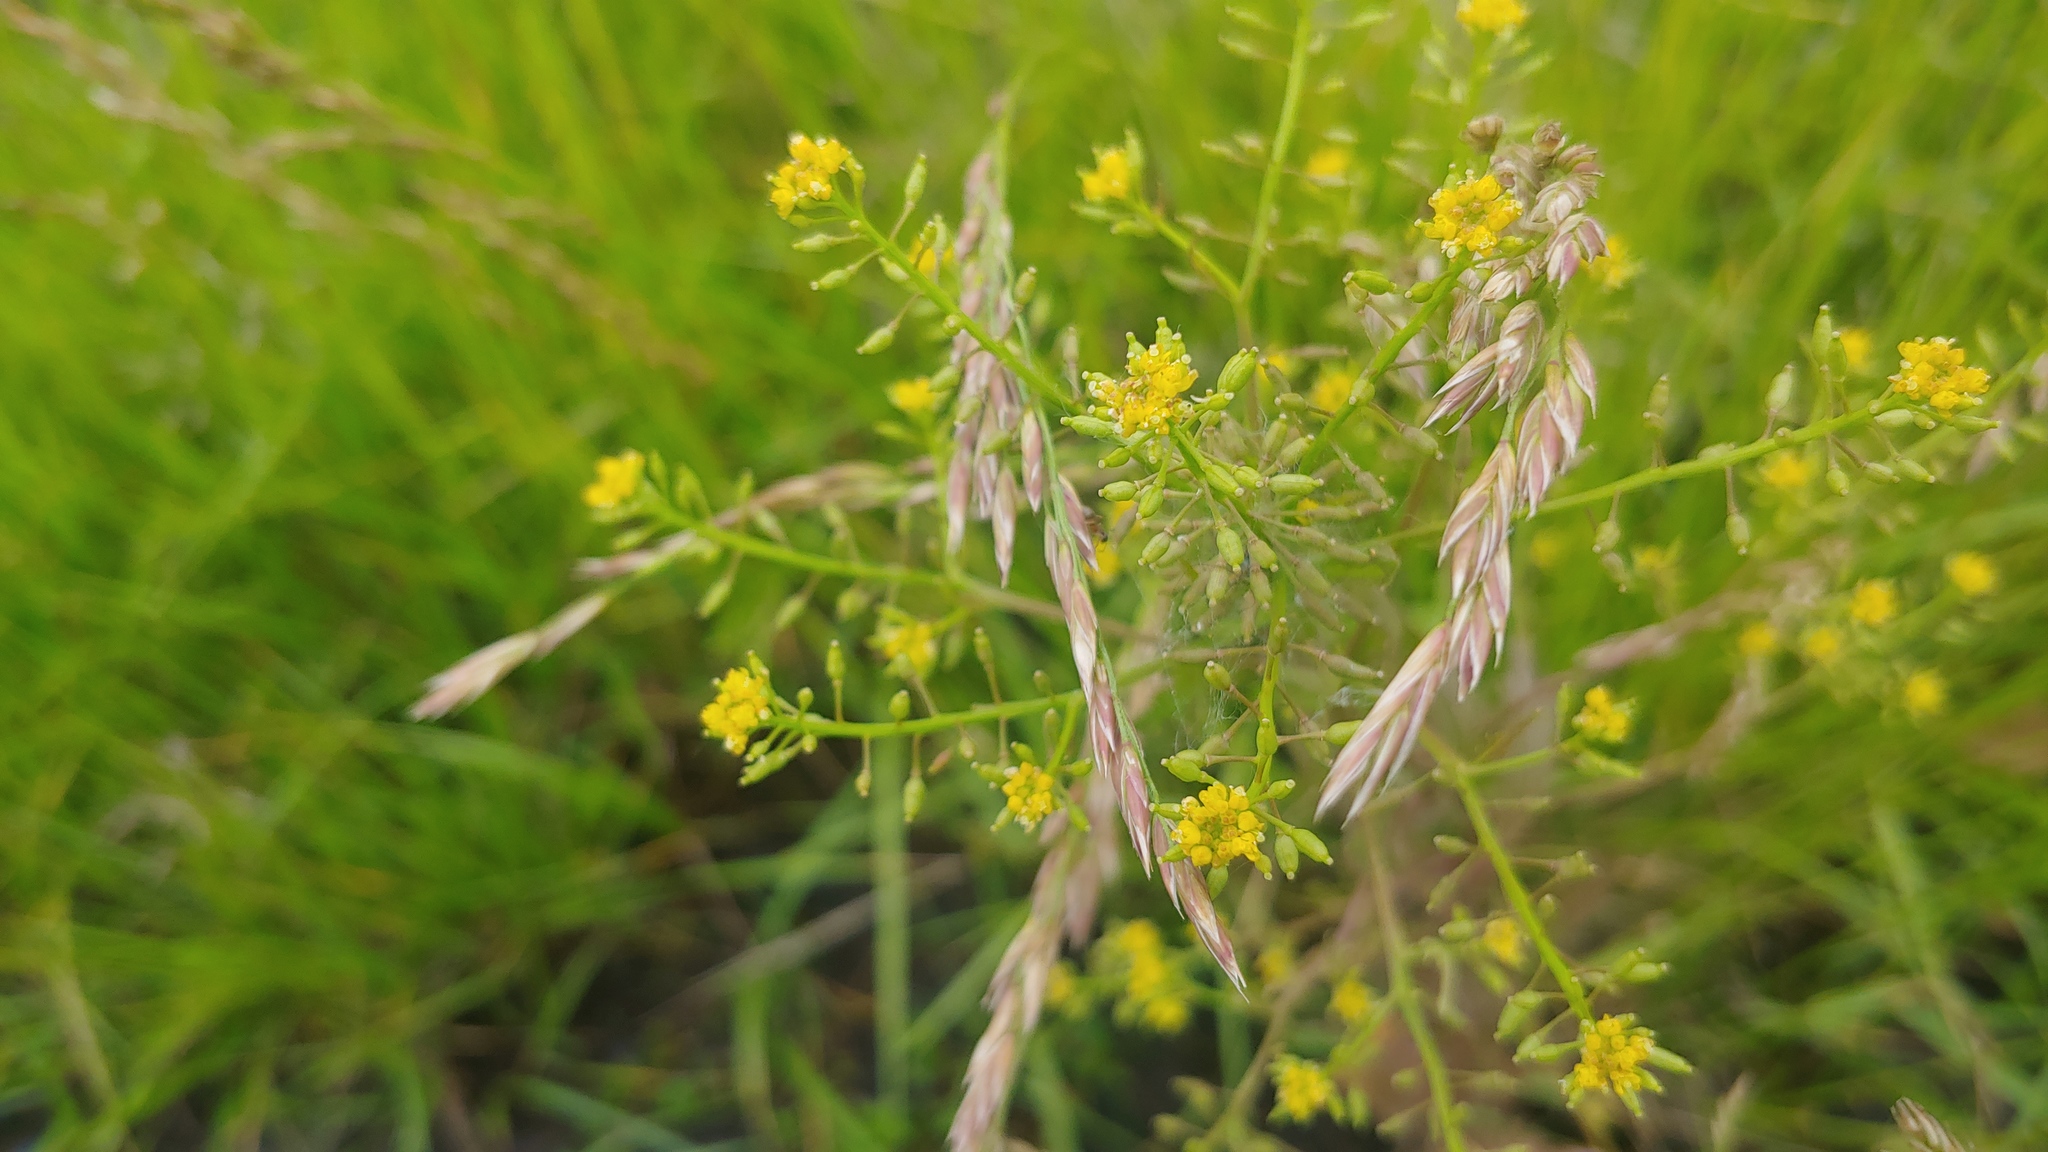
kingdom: Plantae
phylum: Tracheophyta
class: Magnoliopsida
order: Brassicales
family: Brassicaceae
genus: Rorippa
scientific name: Rorippa palustris
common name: Marsh yellow-cress
